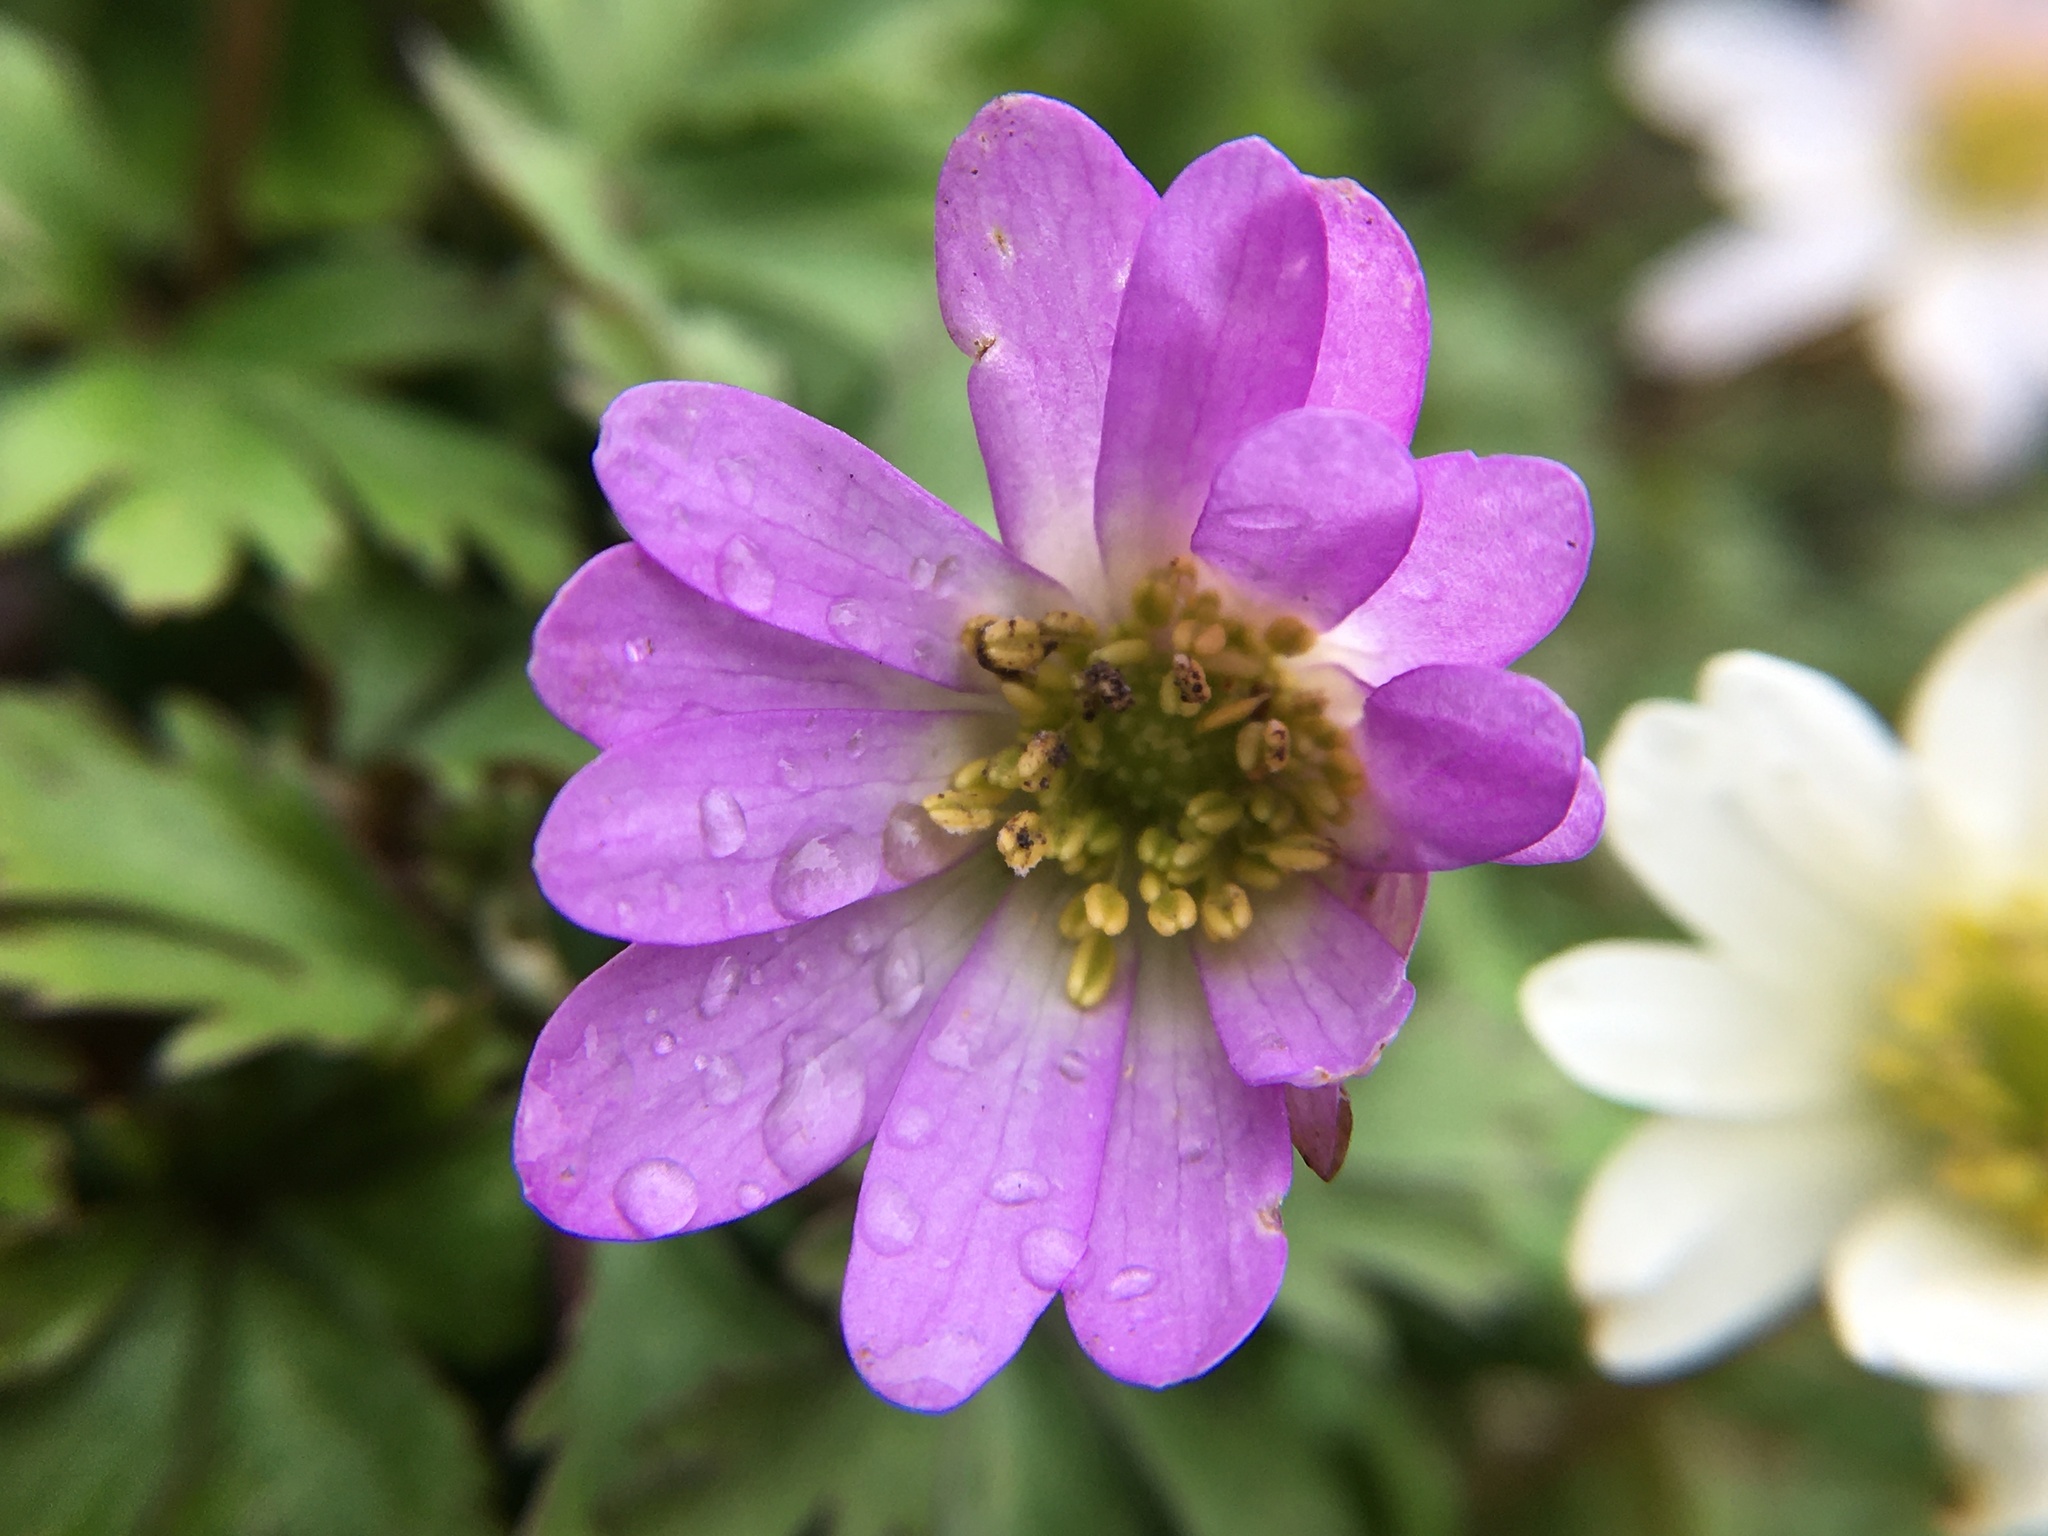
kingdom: Plantae
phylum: Tracheophyta
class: Magnoliopsida
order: Ranunculales
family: Ranunculaceae
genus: Anemone
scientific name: Anemone blanda
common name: Balkan anemone
